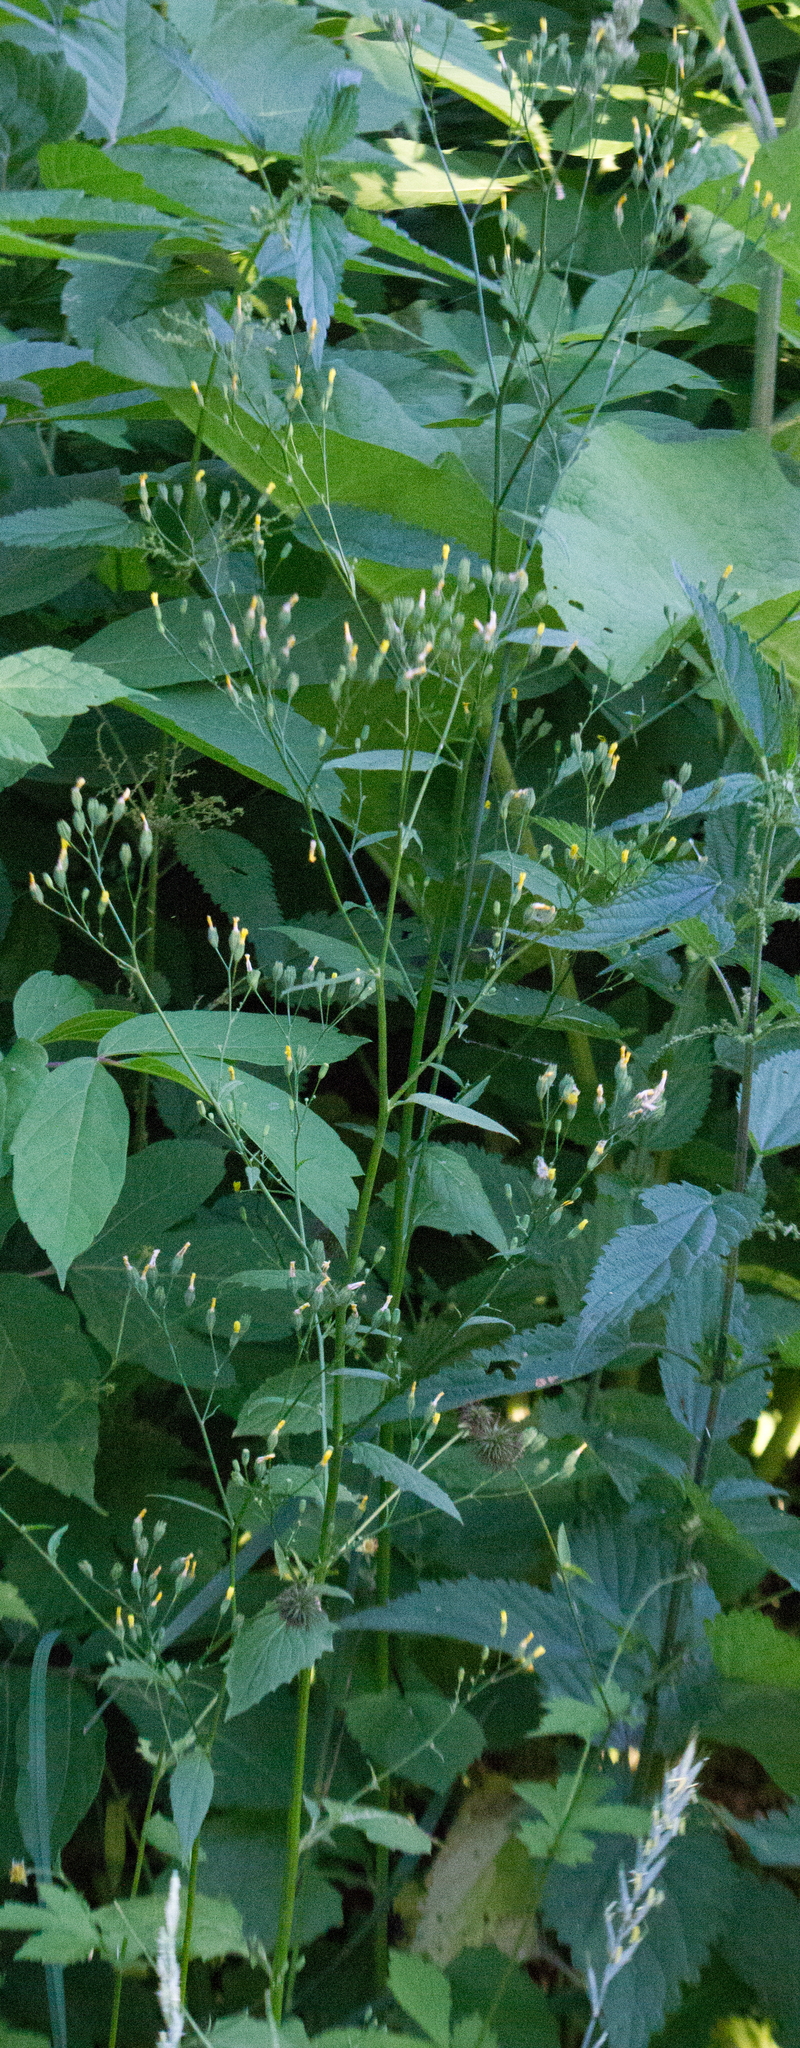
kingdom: Plantae
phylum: Tracheophyta
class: Magnoliopsida
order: Asterales
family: Asteraceae
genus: Lapsana
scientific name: Lapsana communis
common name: Nipplewort
